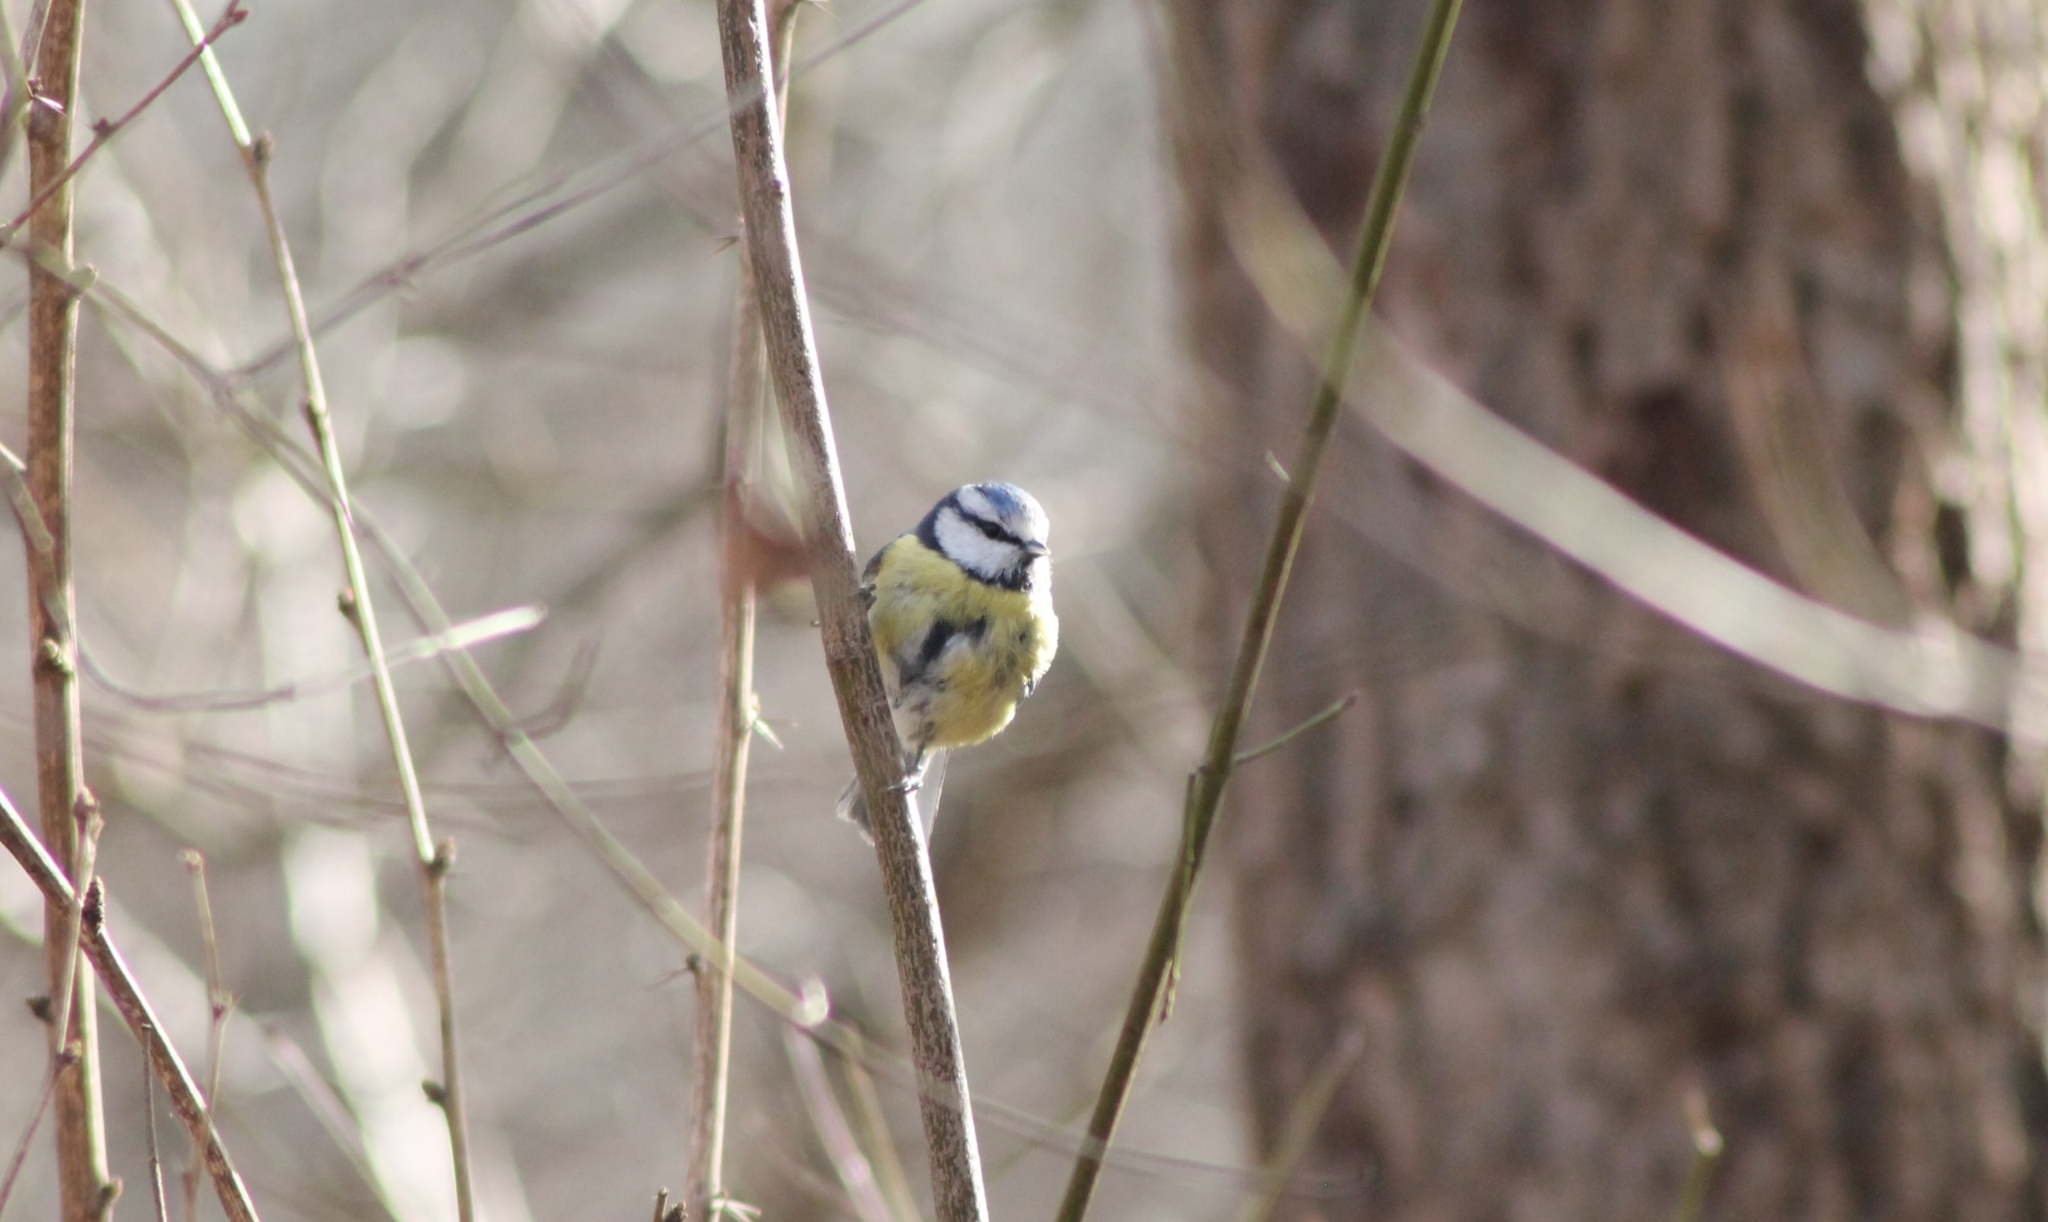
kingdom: Animalia
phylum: Chordata
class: Aves
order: Passeriformes
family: Paridae
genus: Cyanistes
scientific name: Cyanistes caeruleus
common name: Eurasian blue tit
